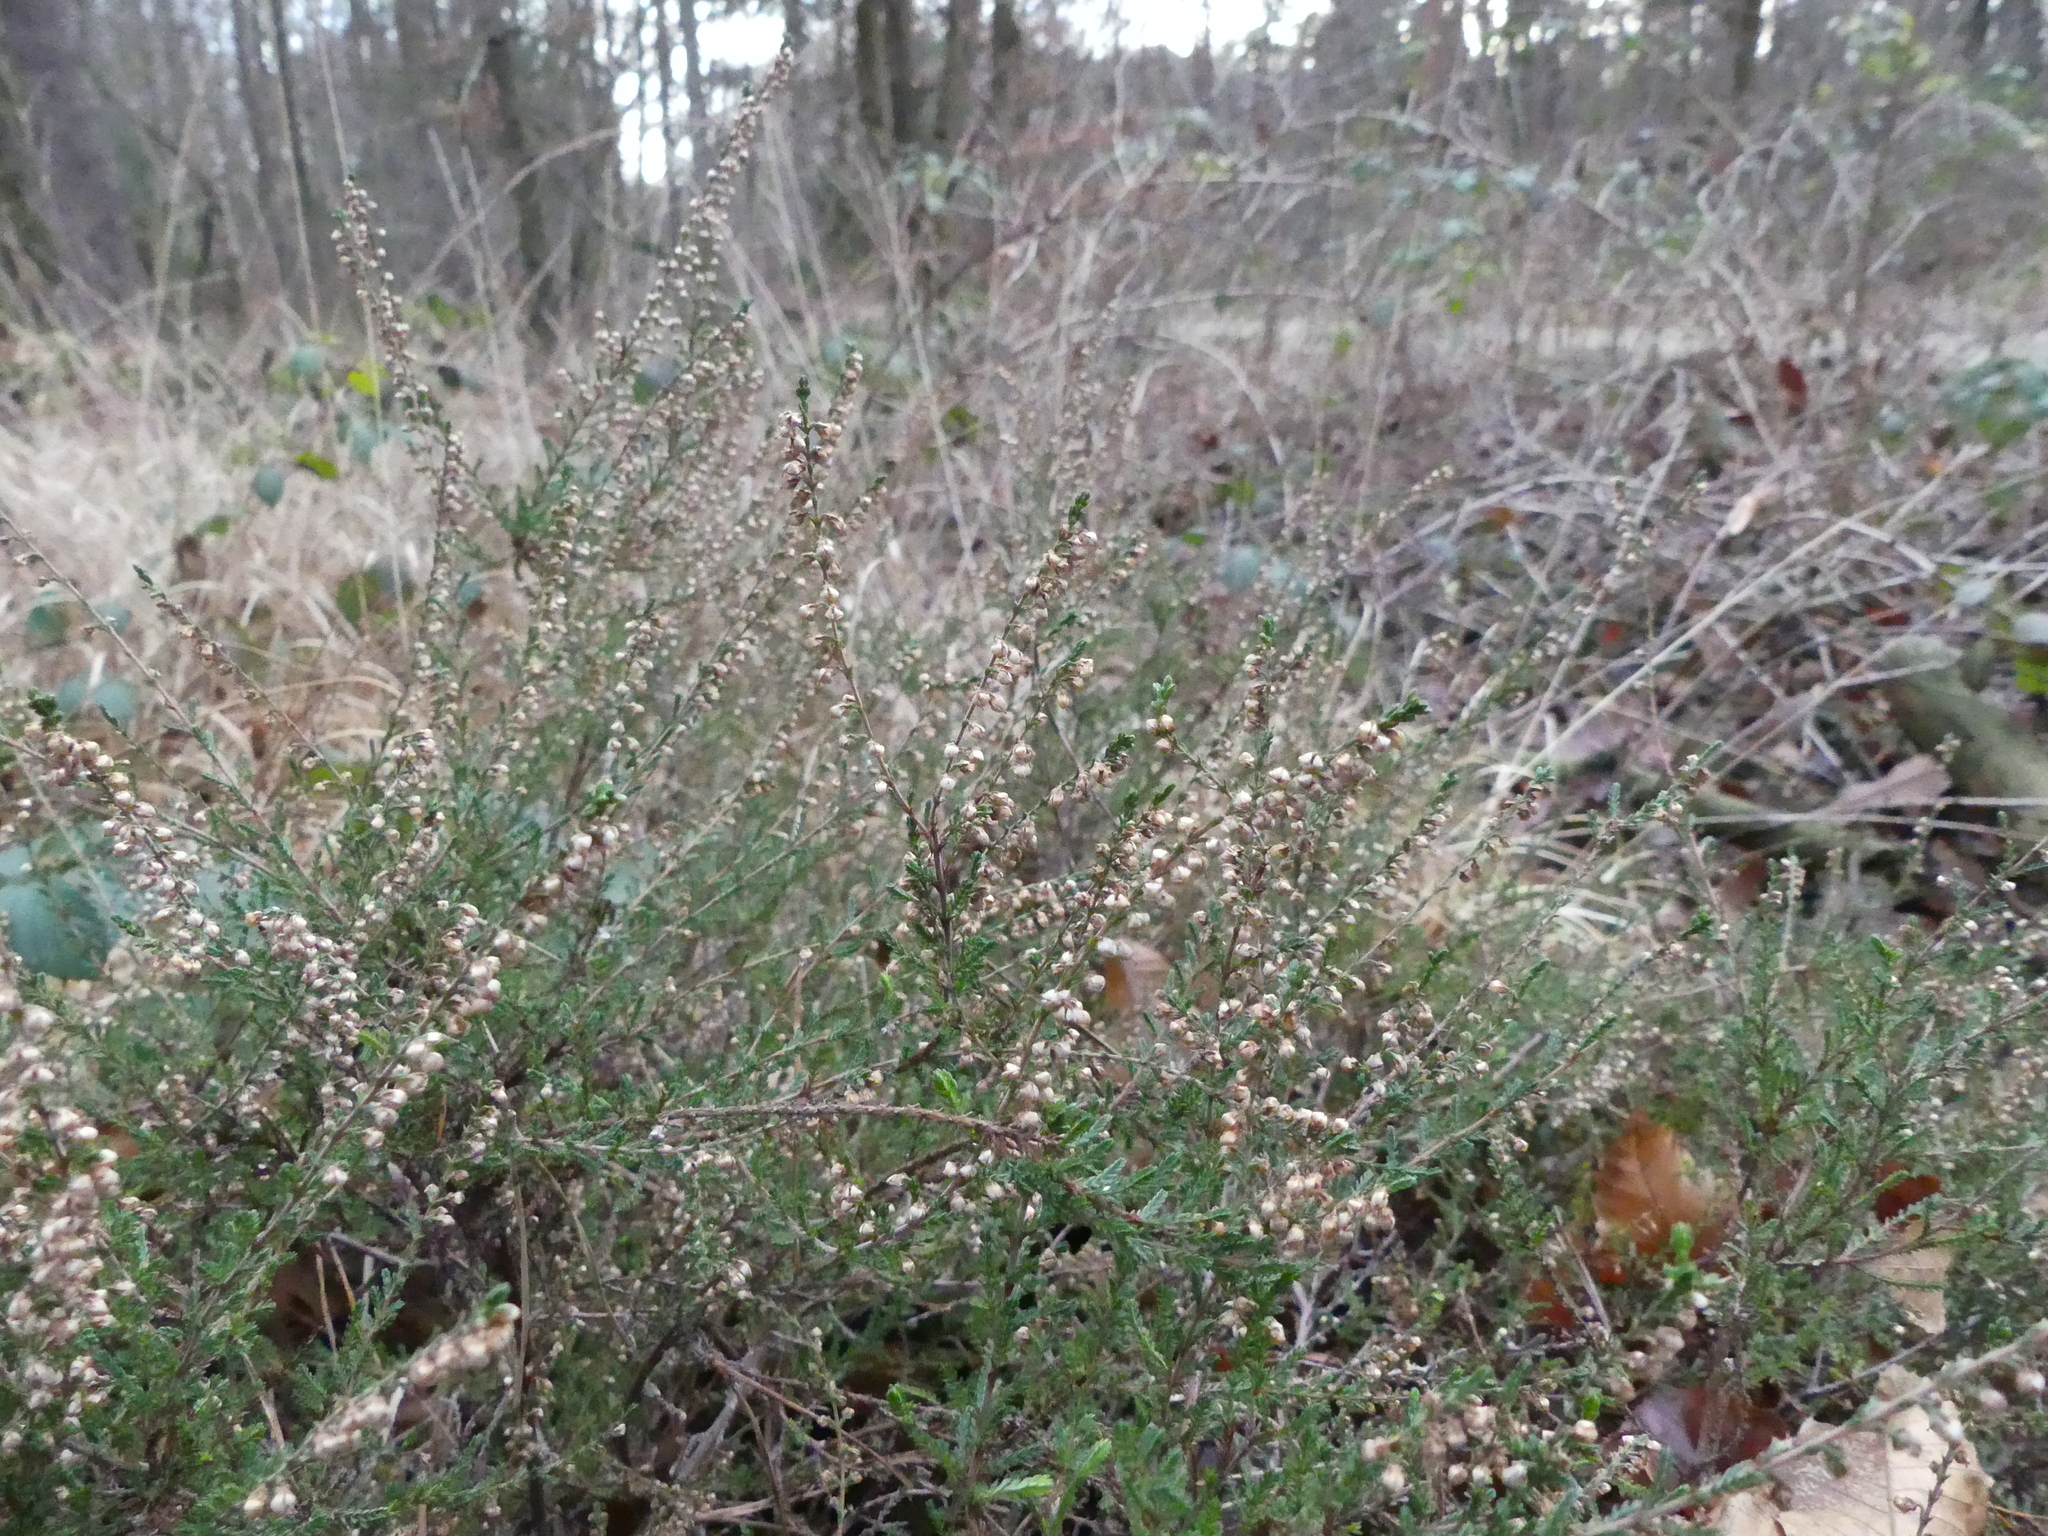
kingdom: Plantae
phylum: Tracheophyta
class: Magnoliopsida
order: Ericales
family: Ericaceae
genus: Calluna
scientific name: Calluna vulgaris
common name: Heather
